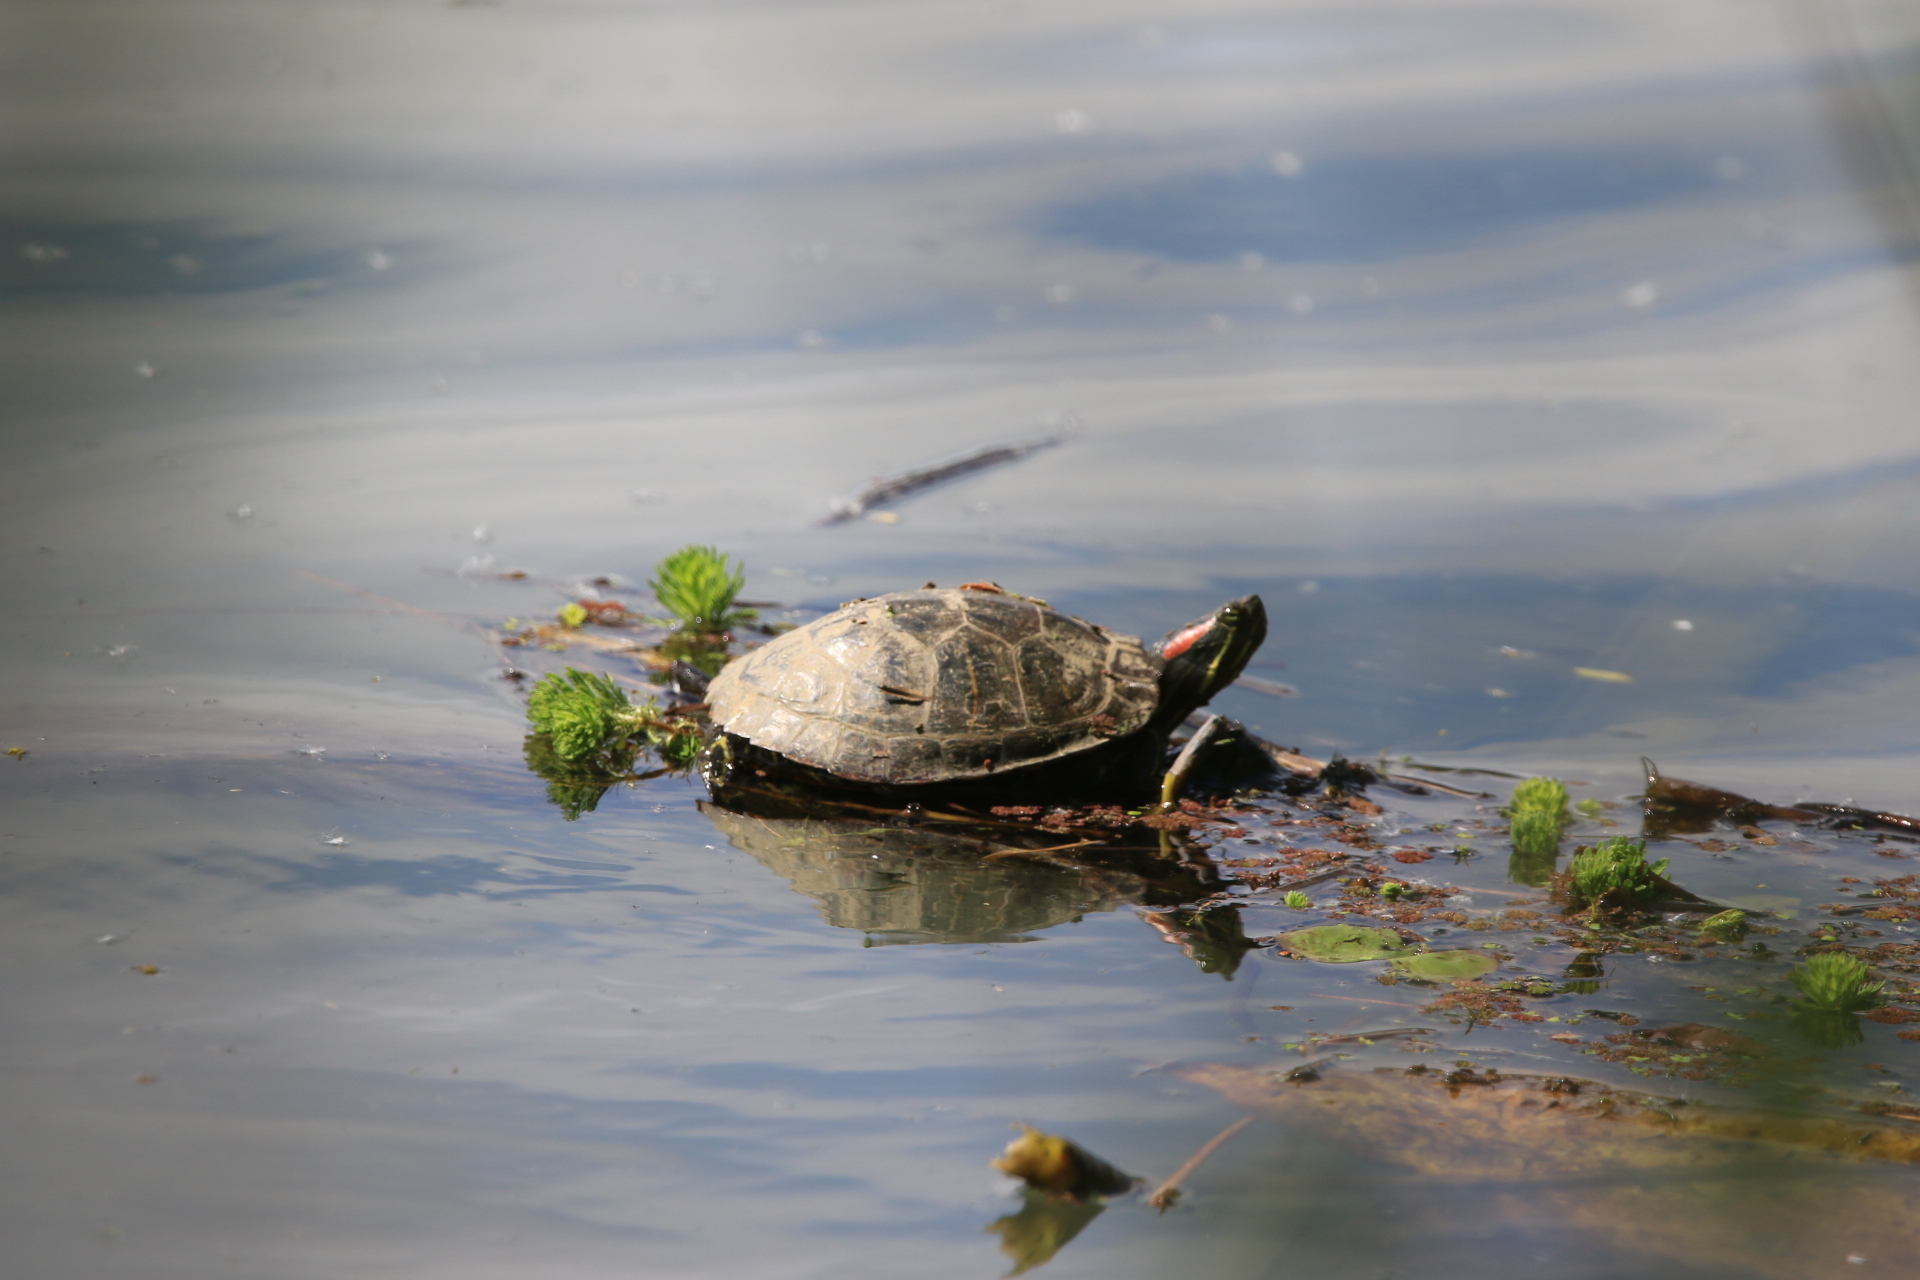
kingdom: Animalia
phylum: Chordata
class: Testudines
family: Emydidae
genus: Trachemys
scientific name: Trachemys scripta
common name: Slider
